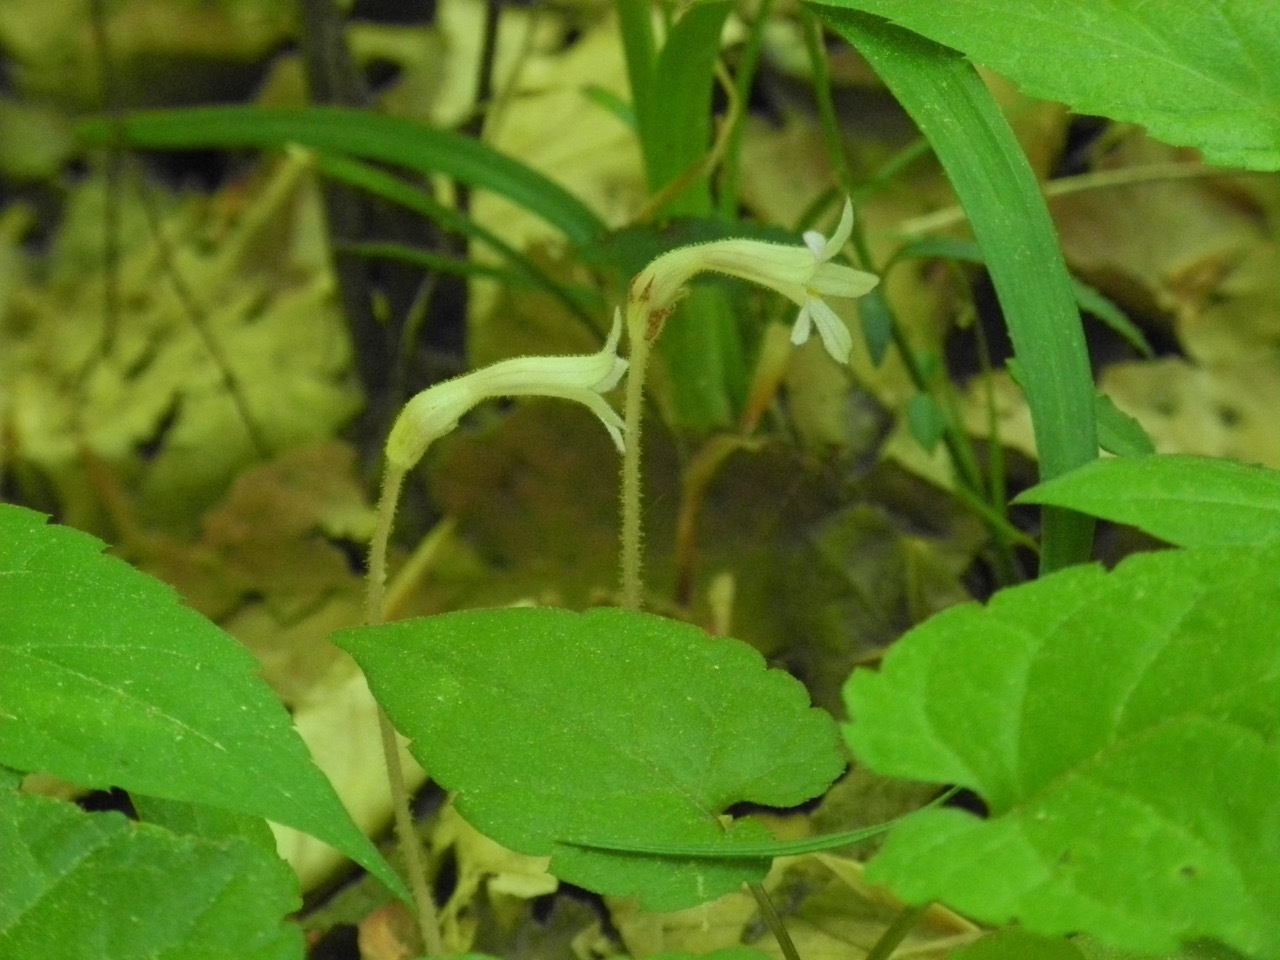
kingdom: Plantae
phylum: Tracheophyta
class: Magnoliopsida
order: Lamiales
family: Orobanchaceae
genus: Aphyllon
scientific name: Aphyllon uniflorum
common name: One-flowered broomrape
